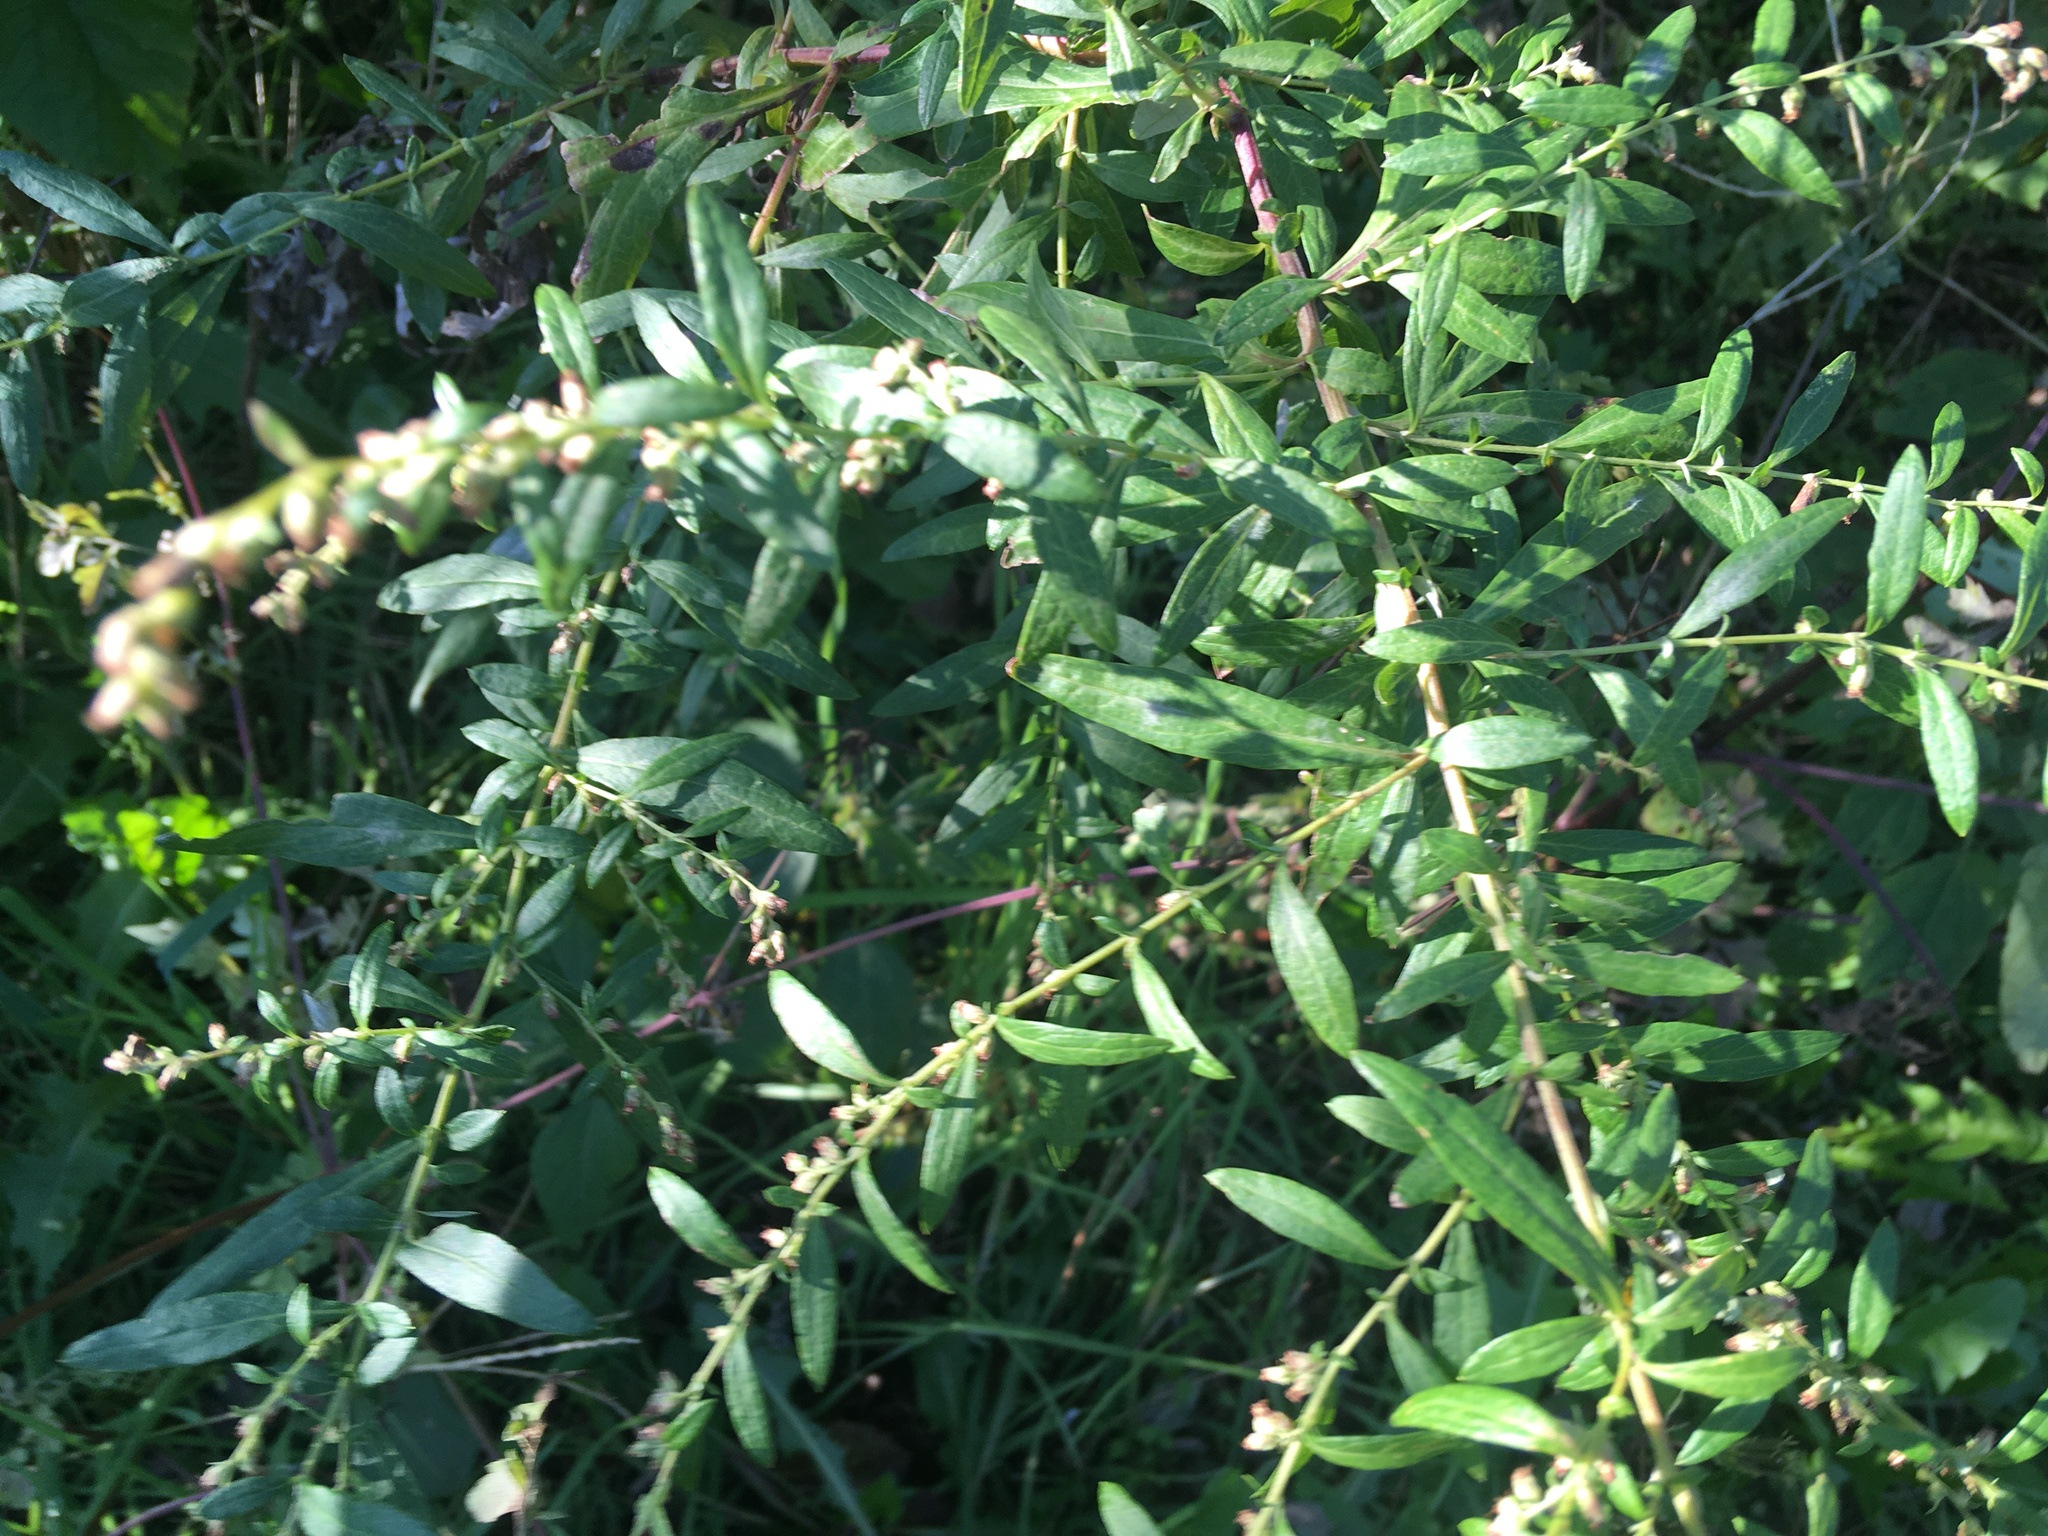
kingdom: Plantae
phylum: Tracheophyta
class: Magnoliopsida
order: Asterales
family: Asteraceae
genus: Artemisia
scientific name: Artemisia vulgaris
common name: Mugwort
